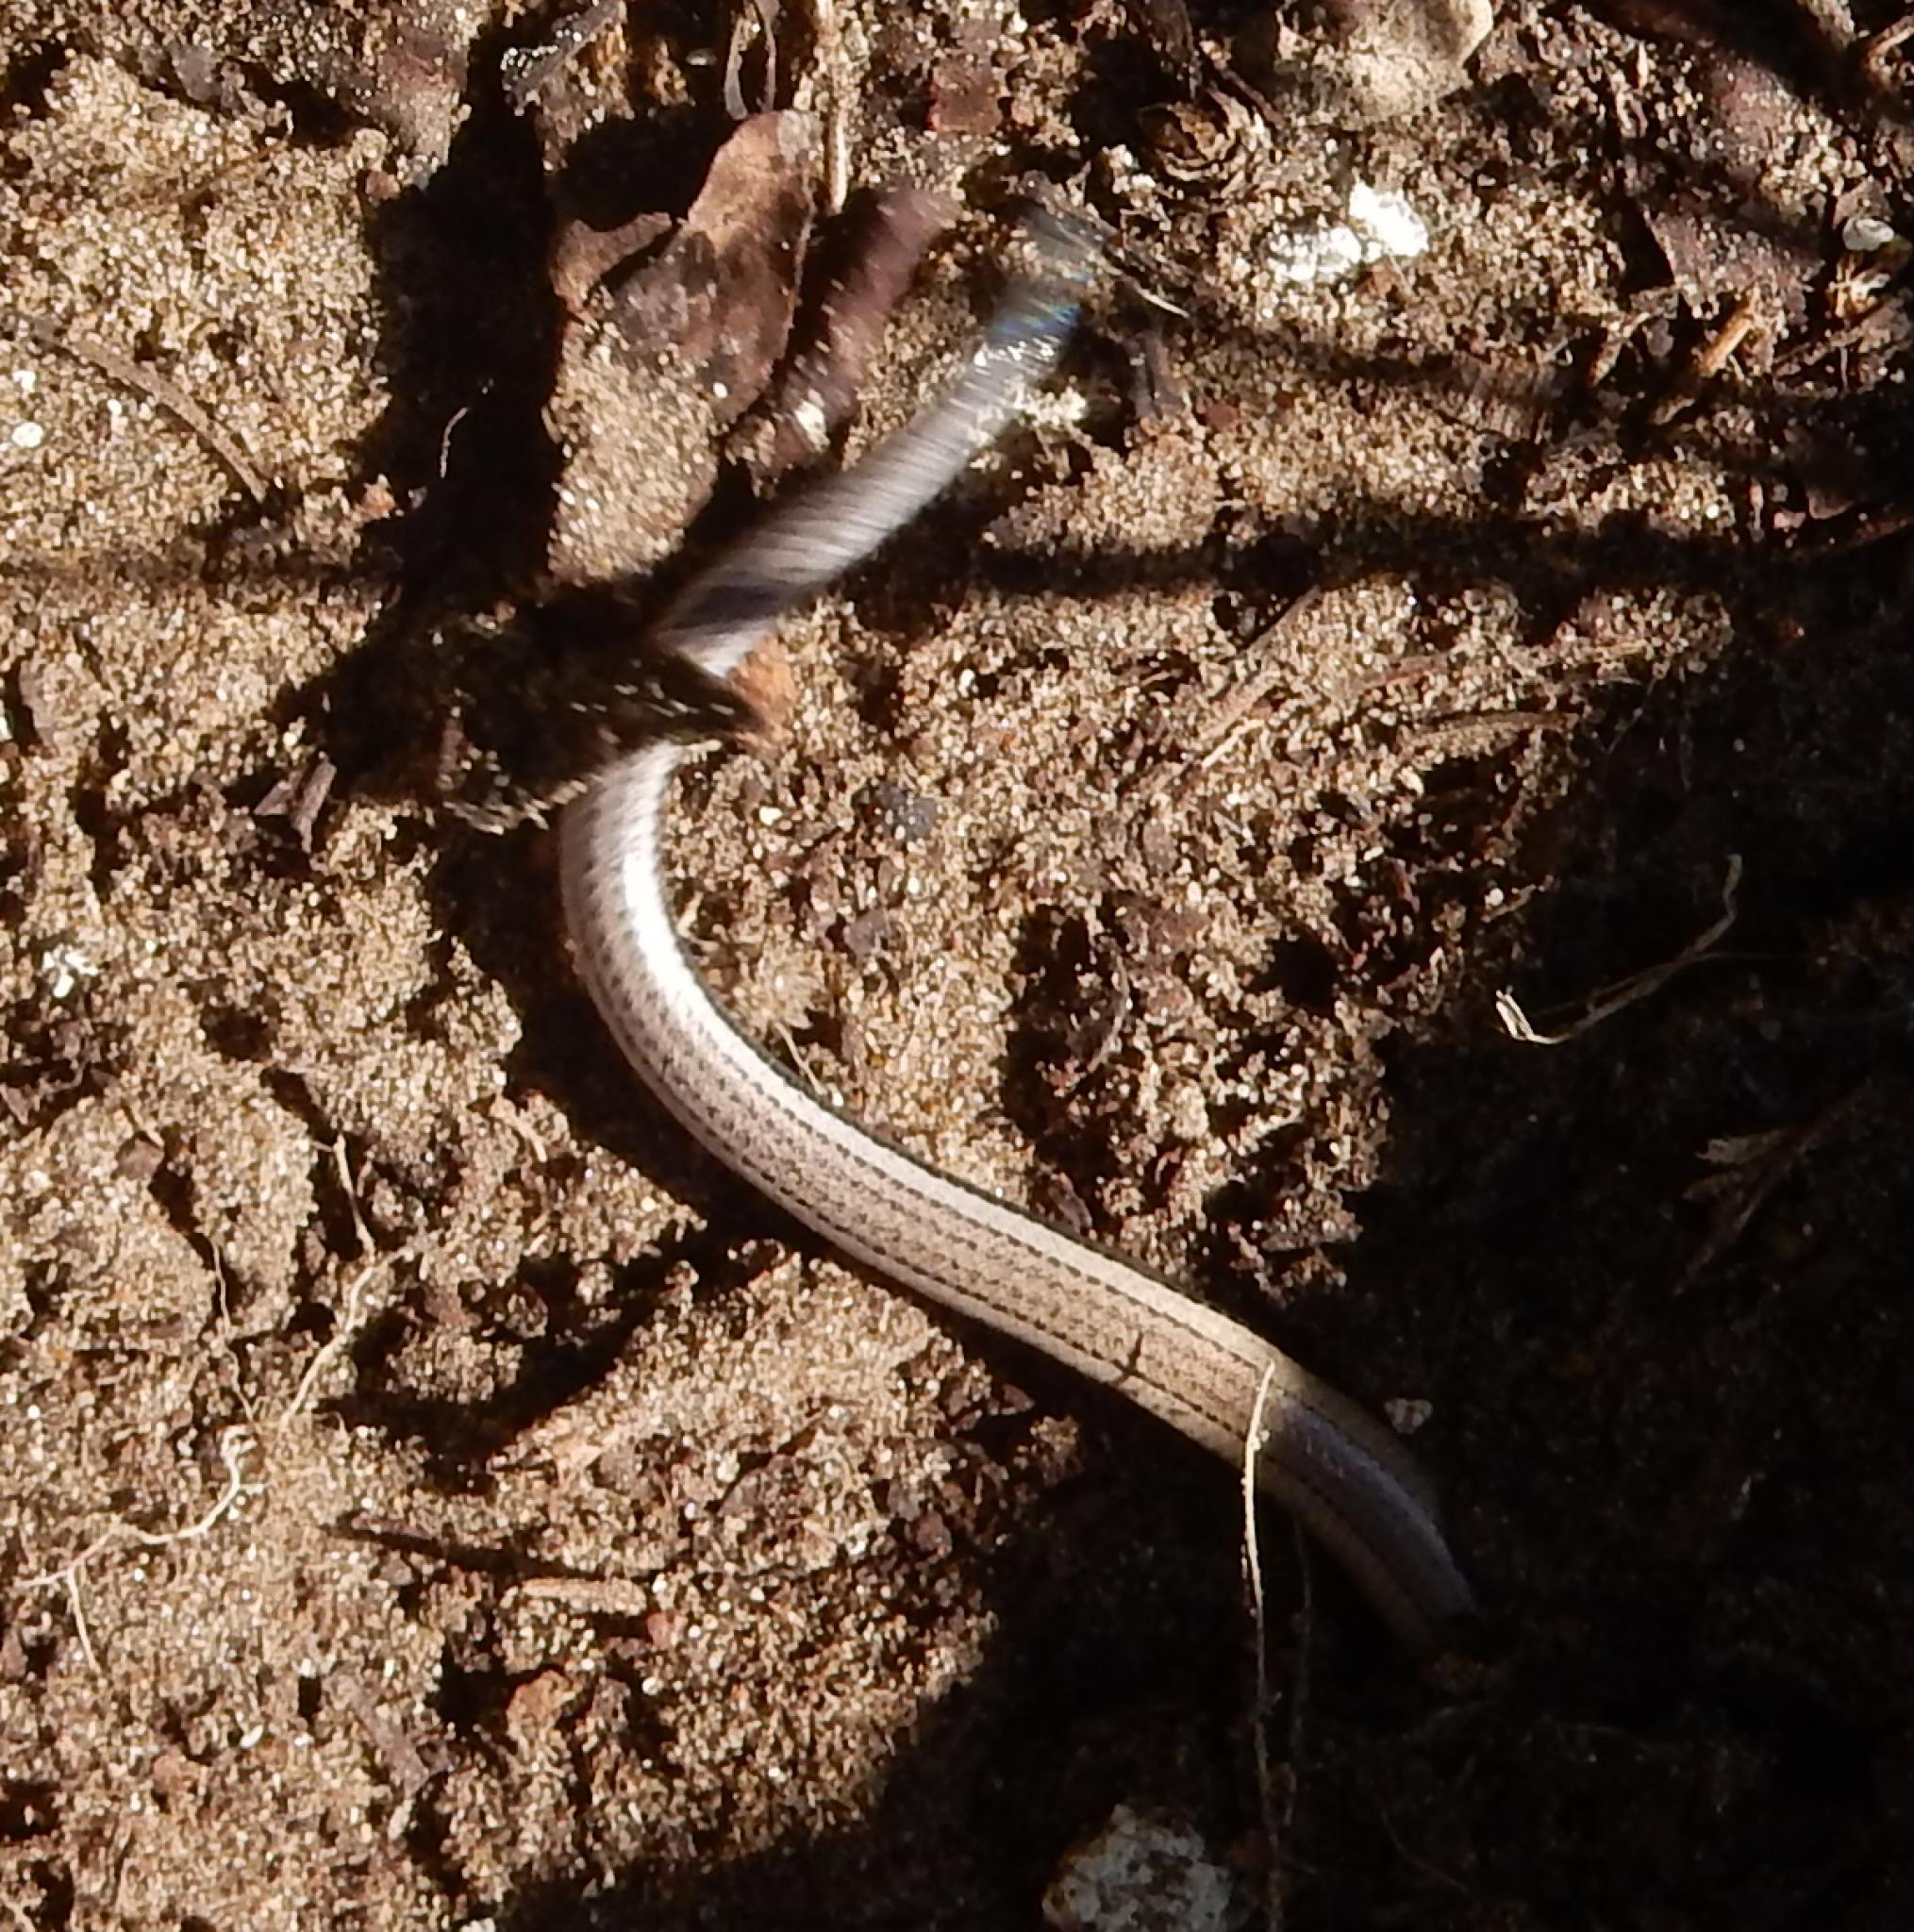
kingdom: Animalia
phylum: Chordata
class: Squamata
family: Scincidae
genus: Scelotes
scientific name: Scelotes anguineus
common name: Algoa dwarf burrowing skink
